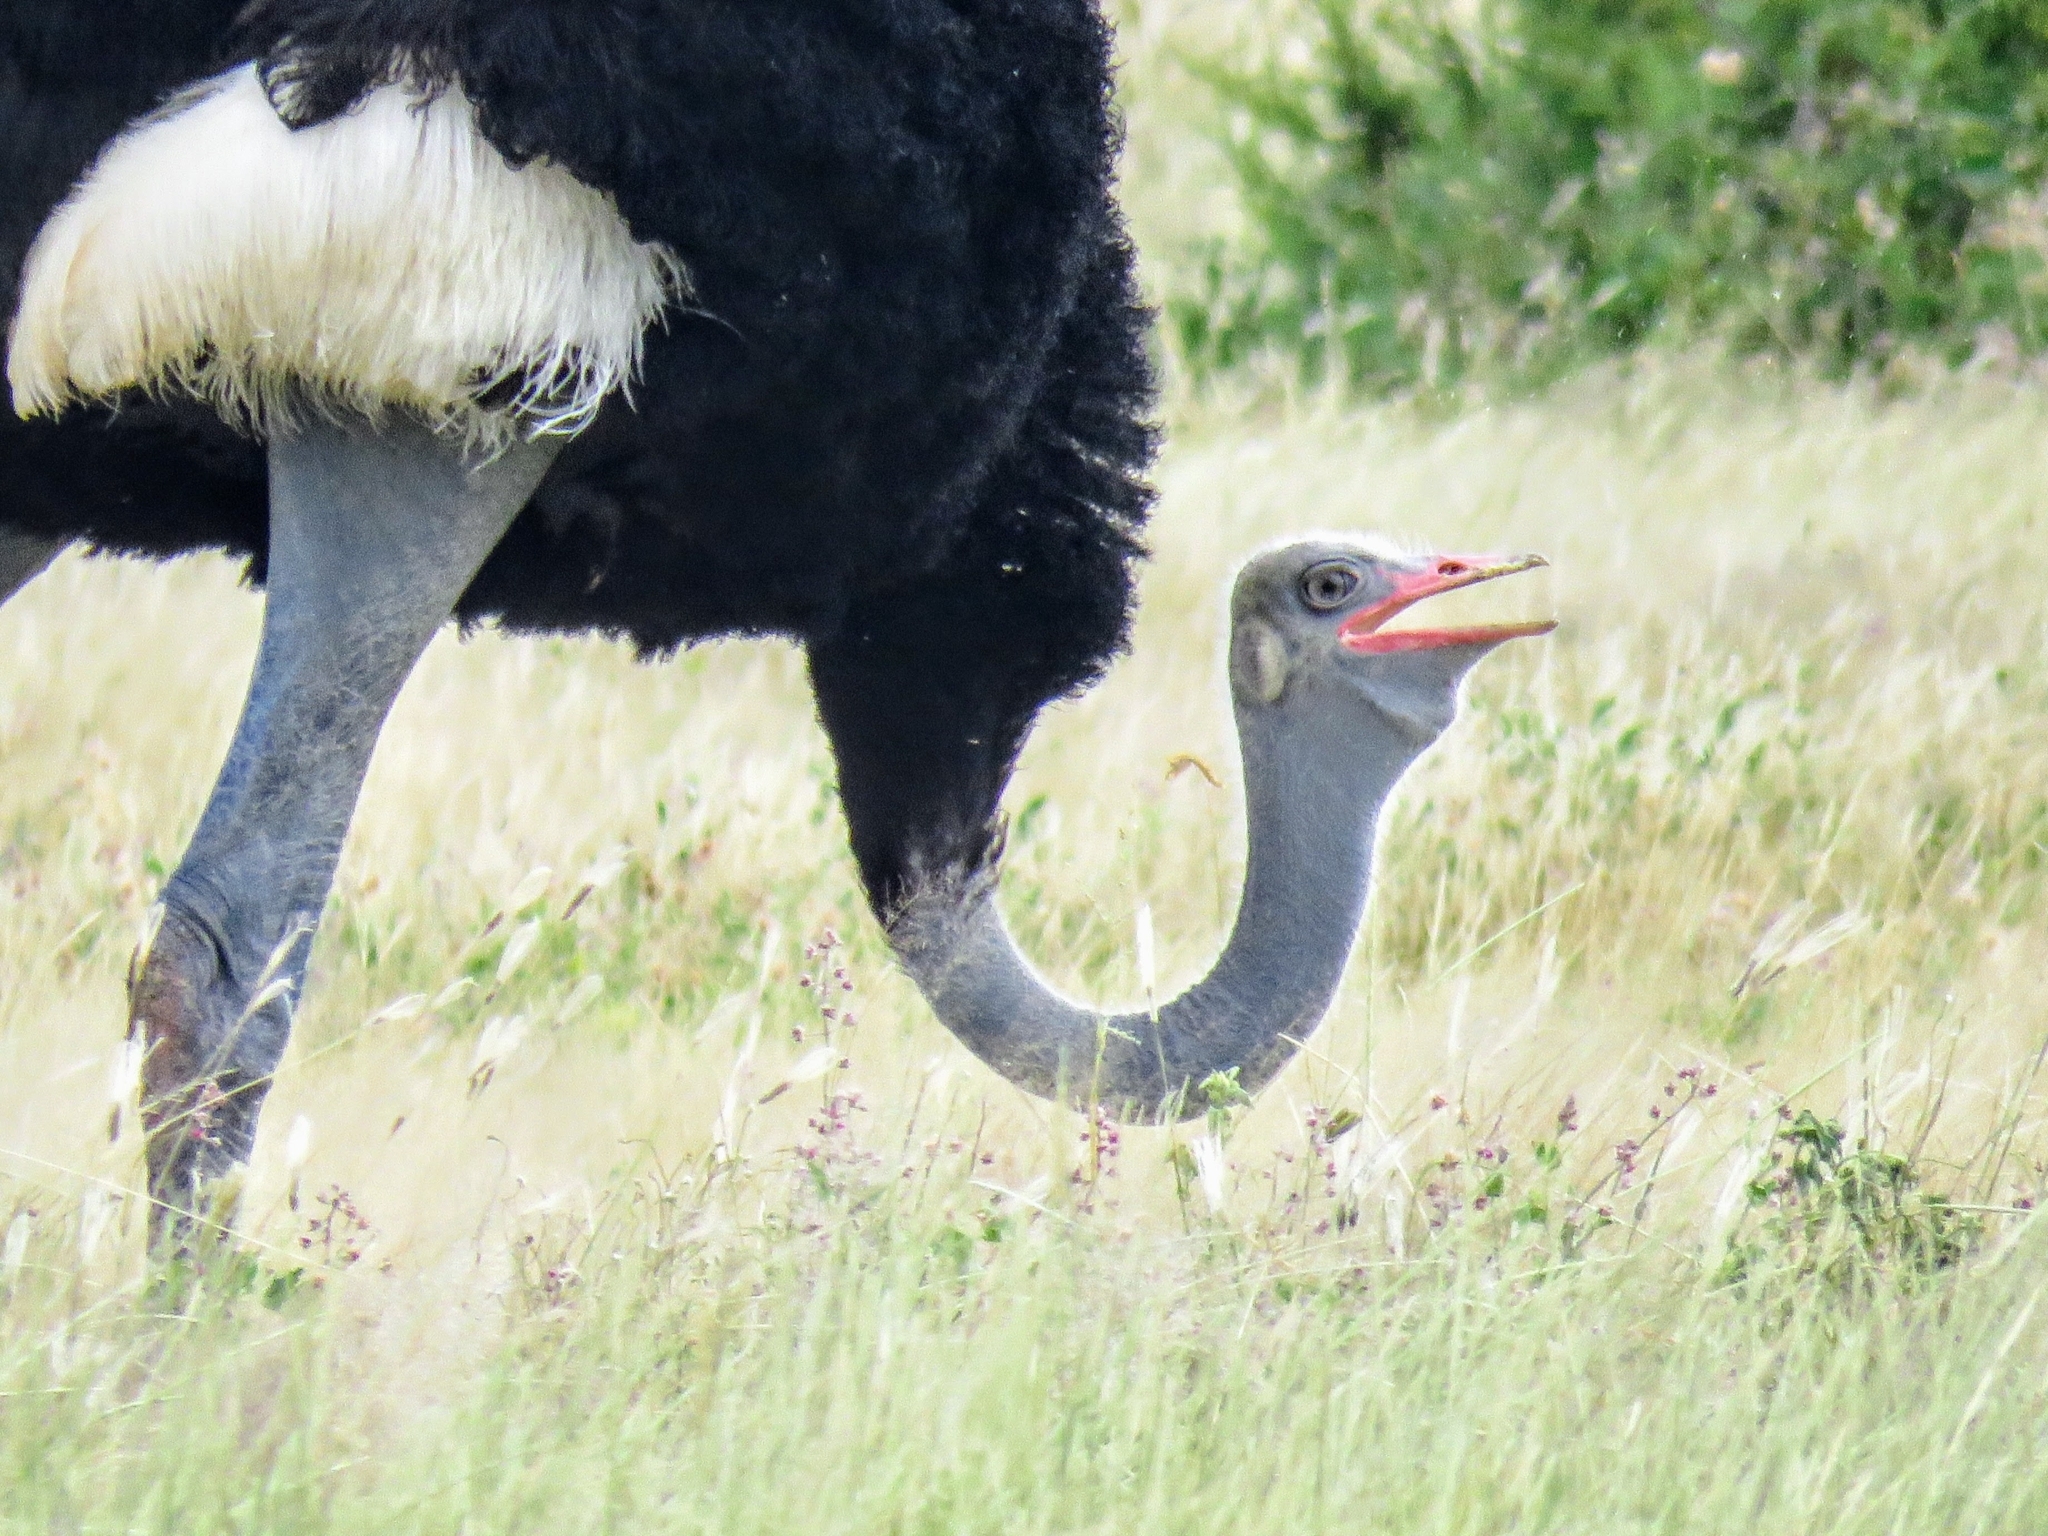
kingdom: Animalia
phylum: Chordata
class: Aves
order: Struthioniformes
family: Struthionidae
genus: Struthio
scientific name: Struthio molybdophanes
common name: Somali ostrich
